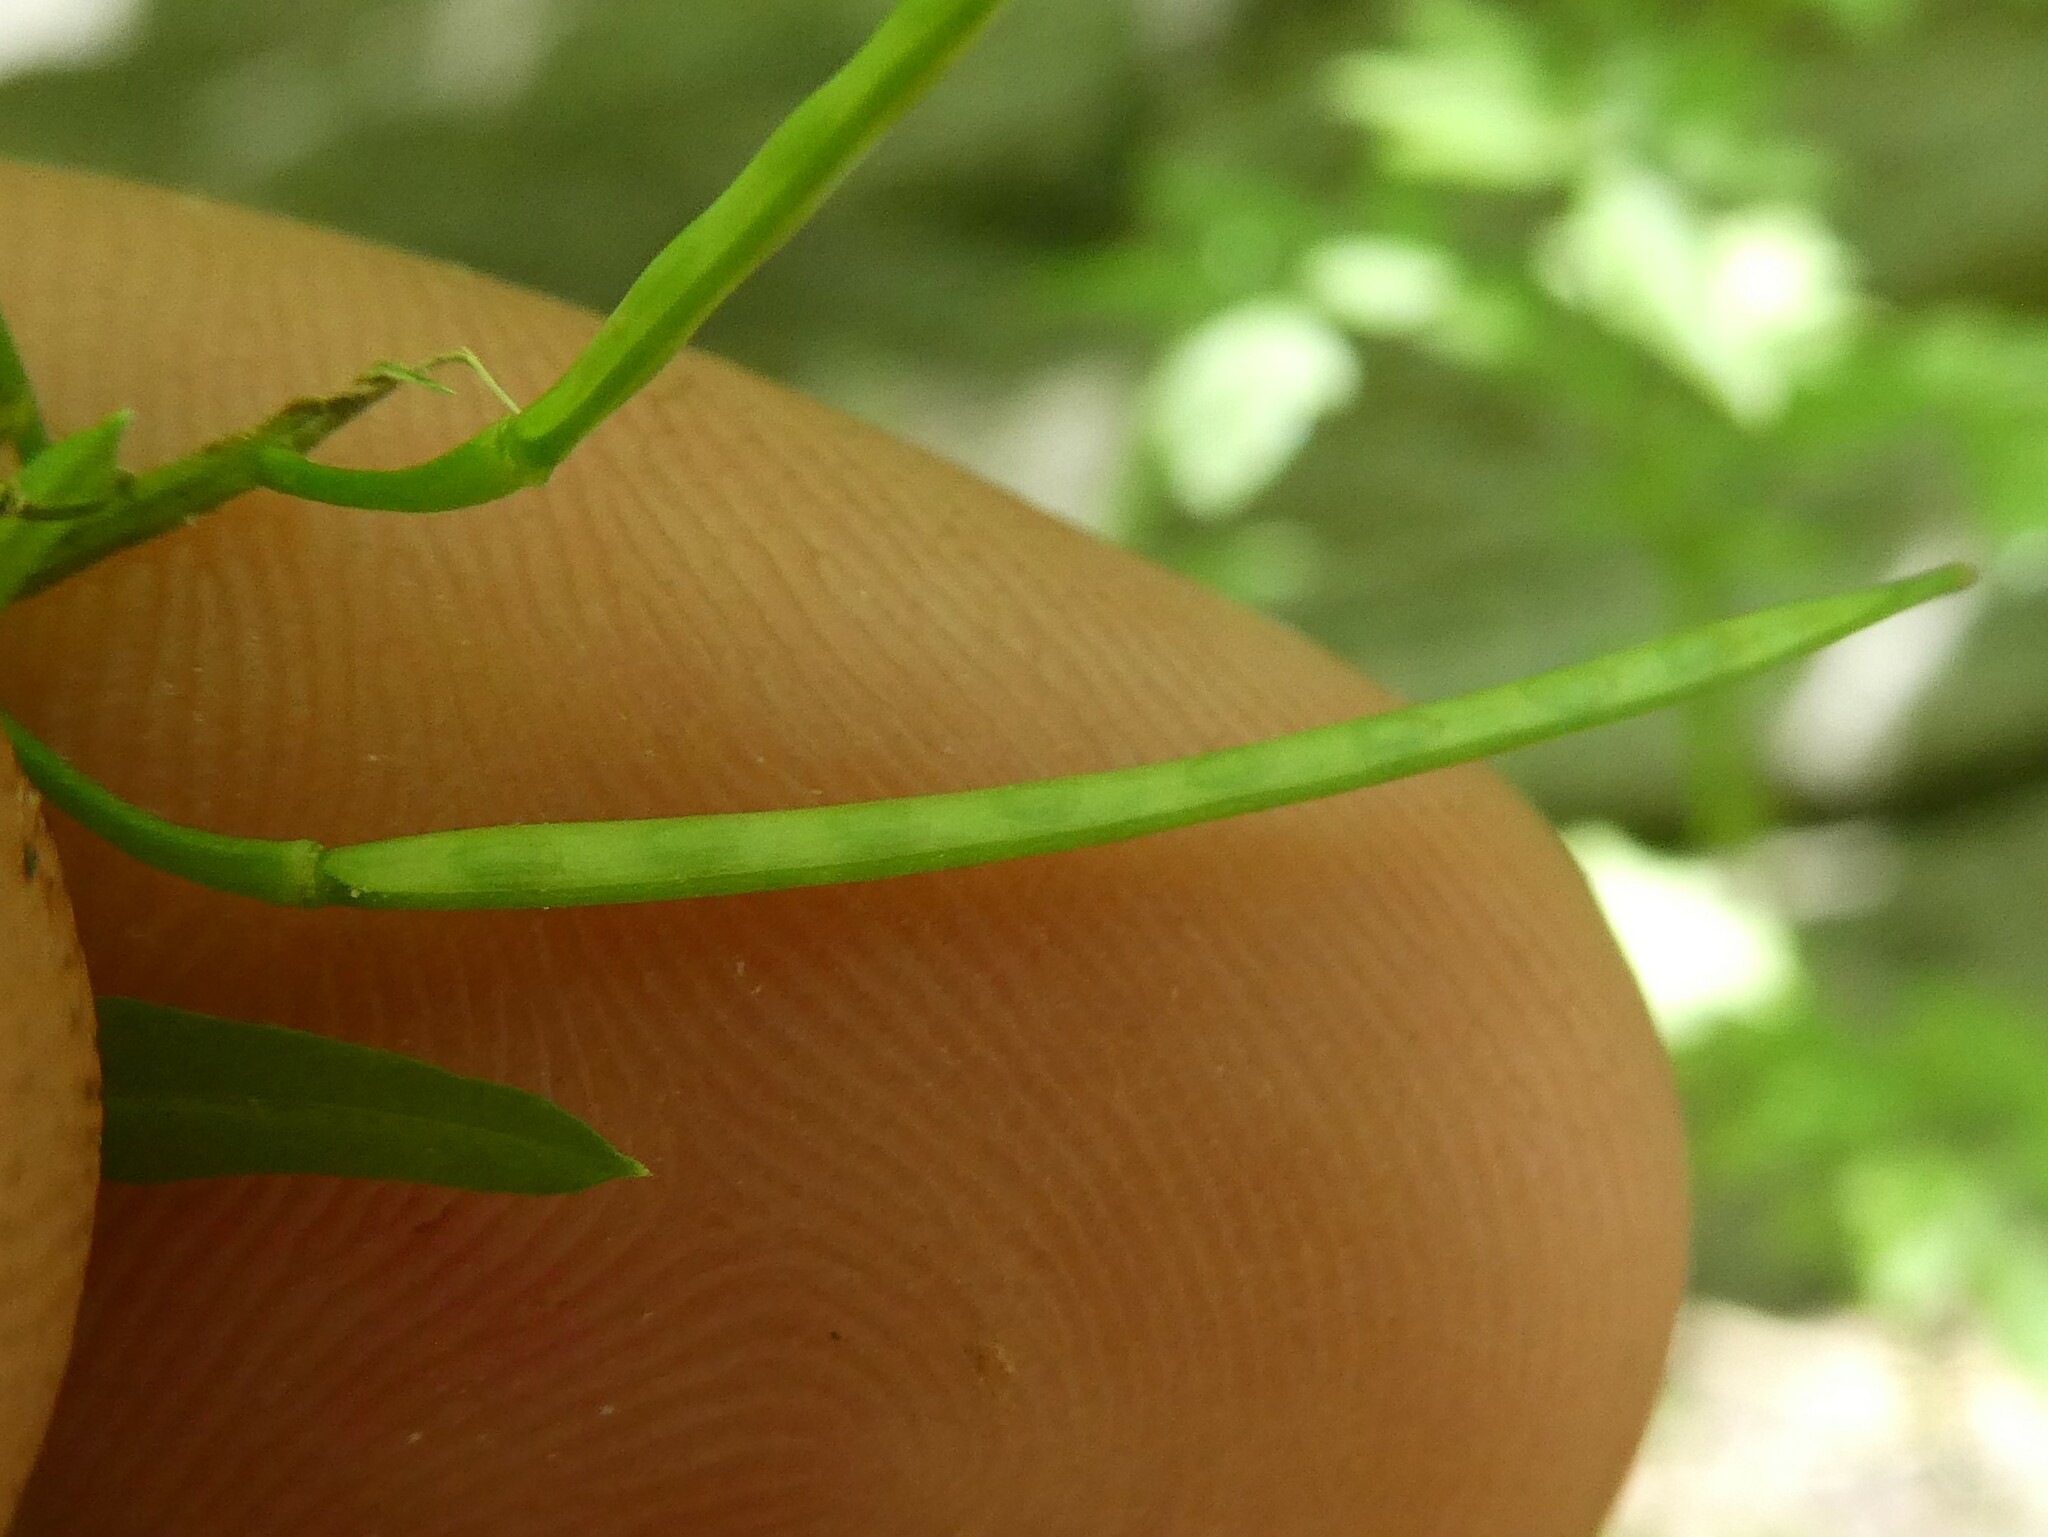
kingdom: Plantae
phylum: Tracheophyta
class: Magnoliopsida
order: Brassicales
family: Brassicaceae
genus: Cardamine
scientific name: Cardamine impatiens
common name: Narrow-leaved bitter-cress
